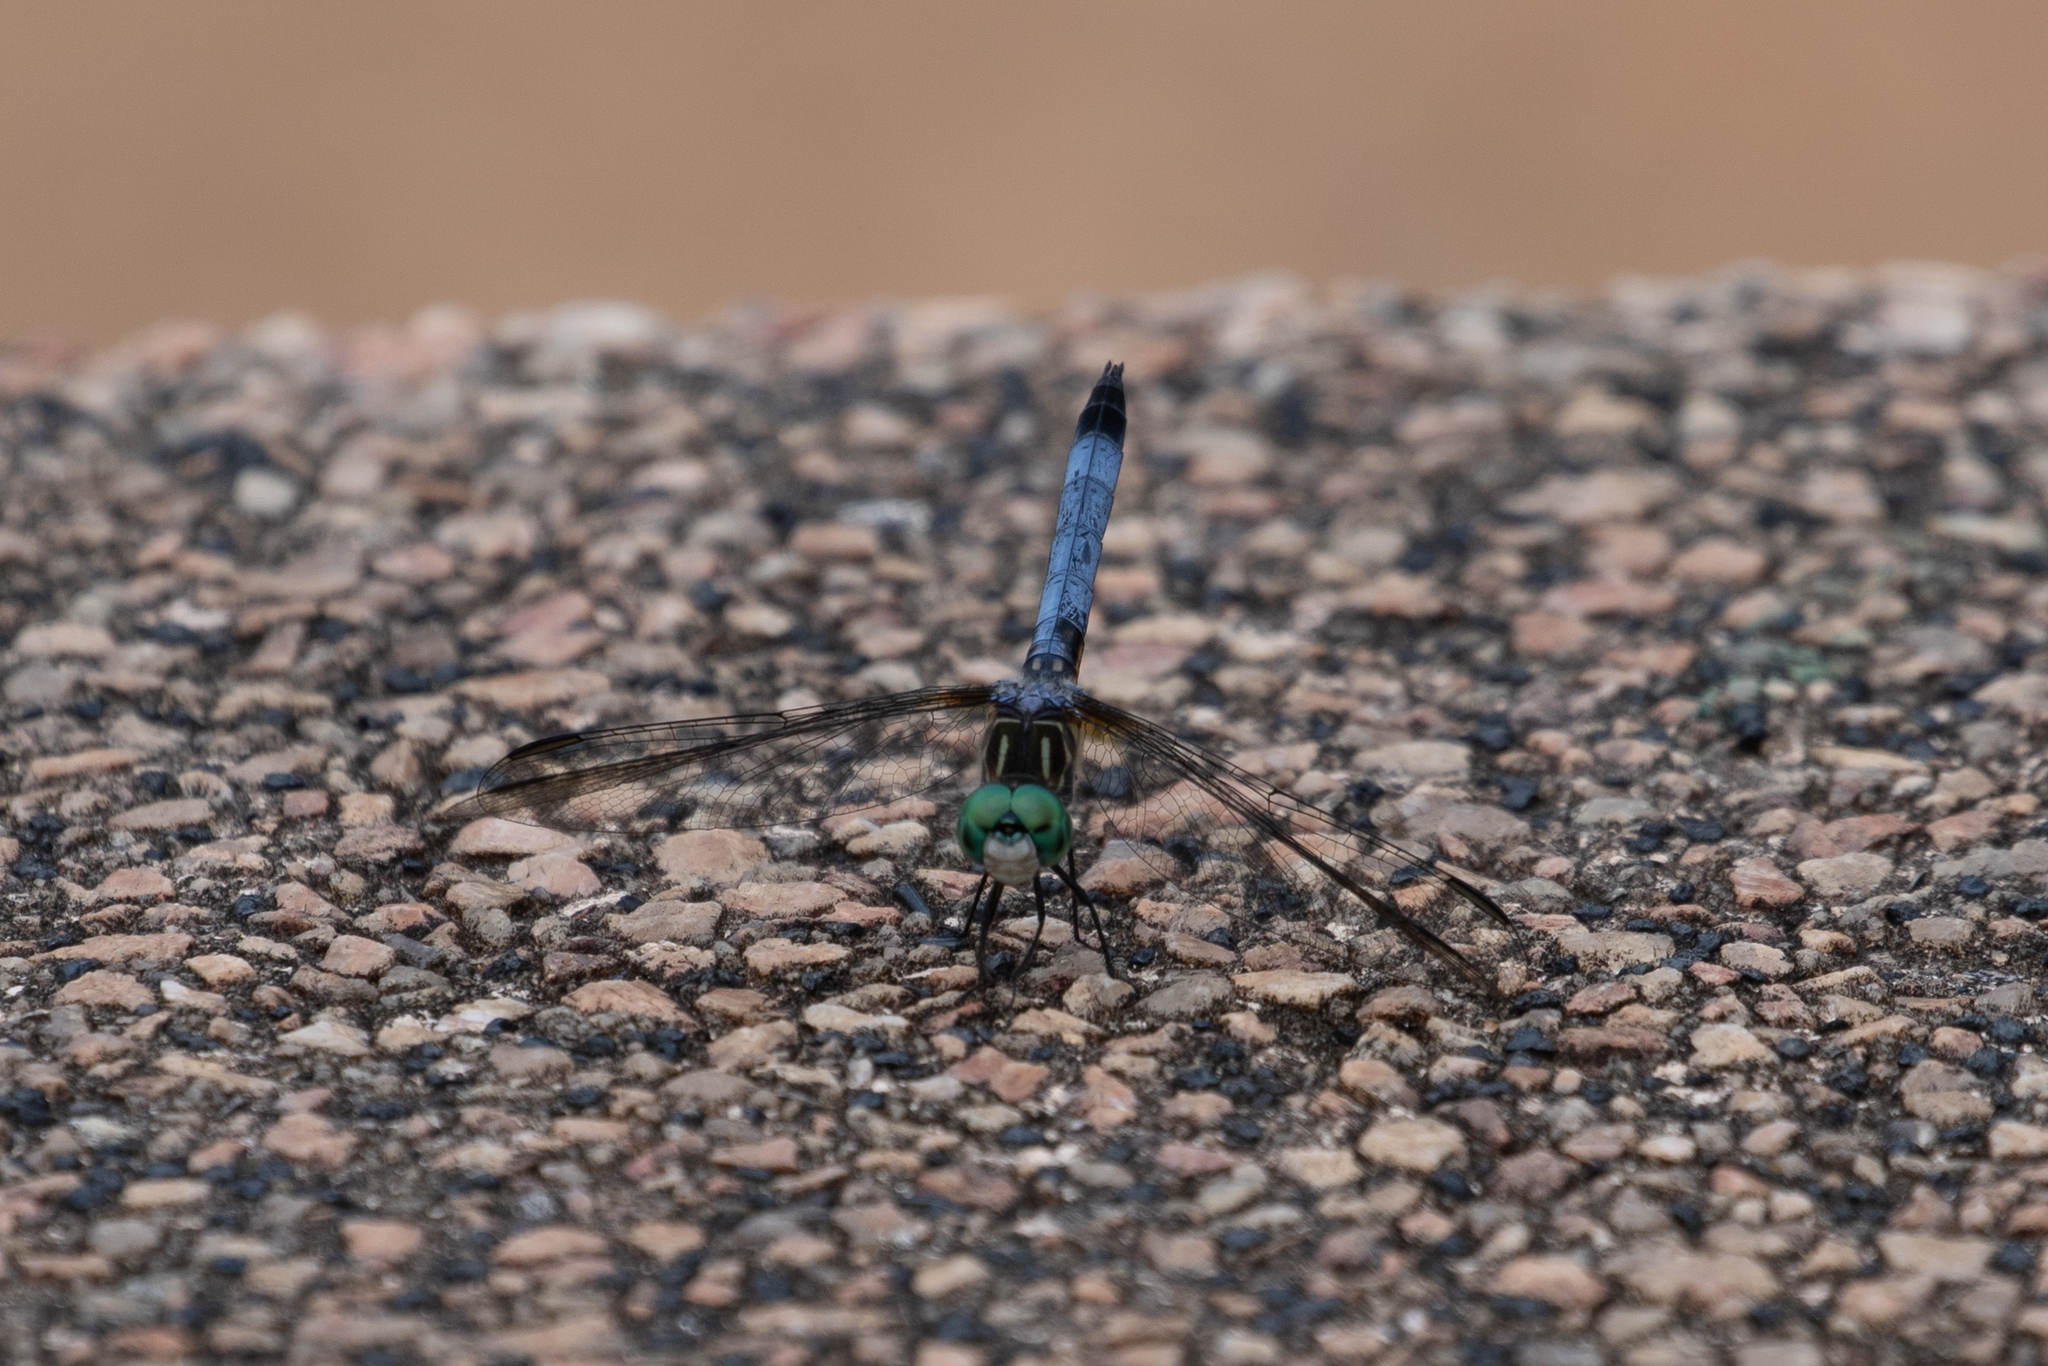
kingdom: Animalia
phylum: Arthropoda
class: Insecta
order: Odonata
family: Libellulidae
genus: Pachydiplax
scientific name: Pachydiplax longipennis
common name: Blue dasher
